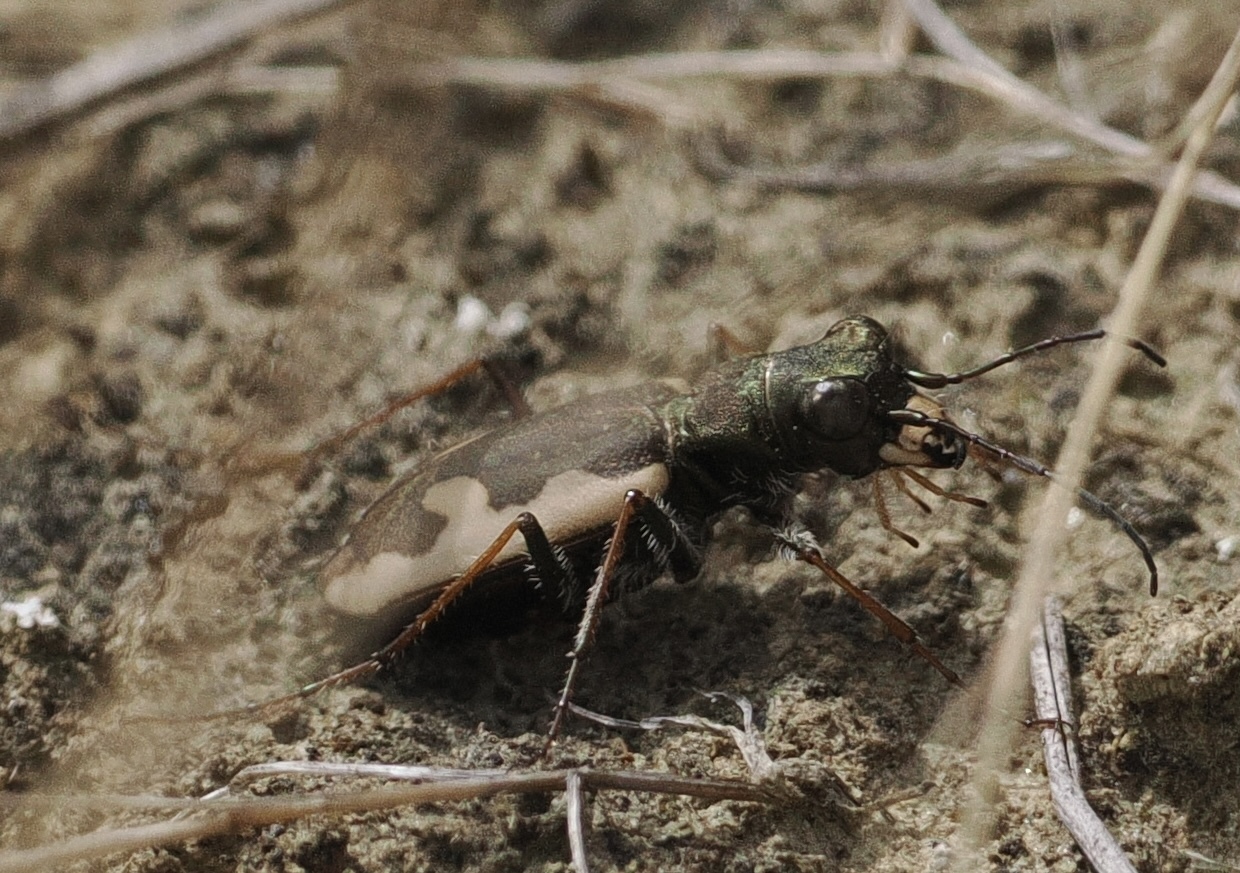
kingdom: Animalia
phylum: Arthropoda
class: Insecta
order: Coleoptera
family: Carabidae
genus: Neocicindela
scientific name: Neocicindela latecincta
